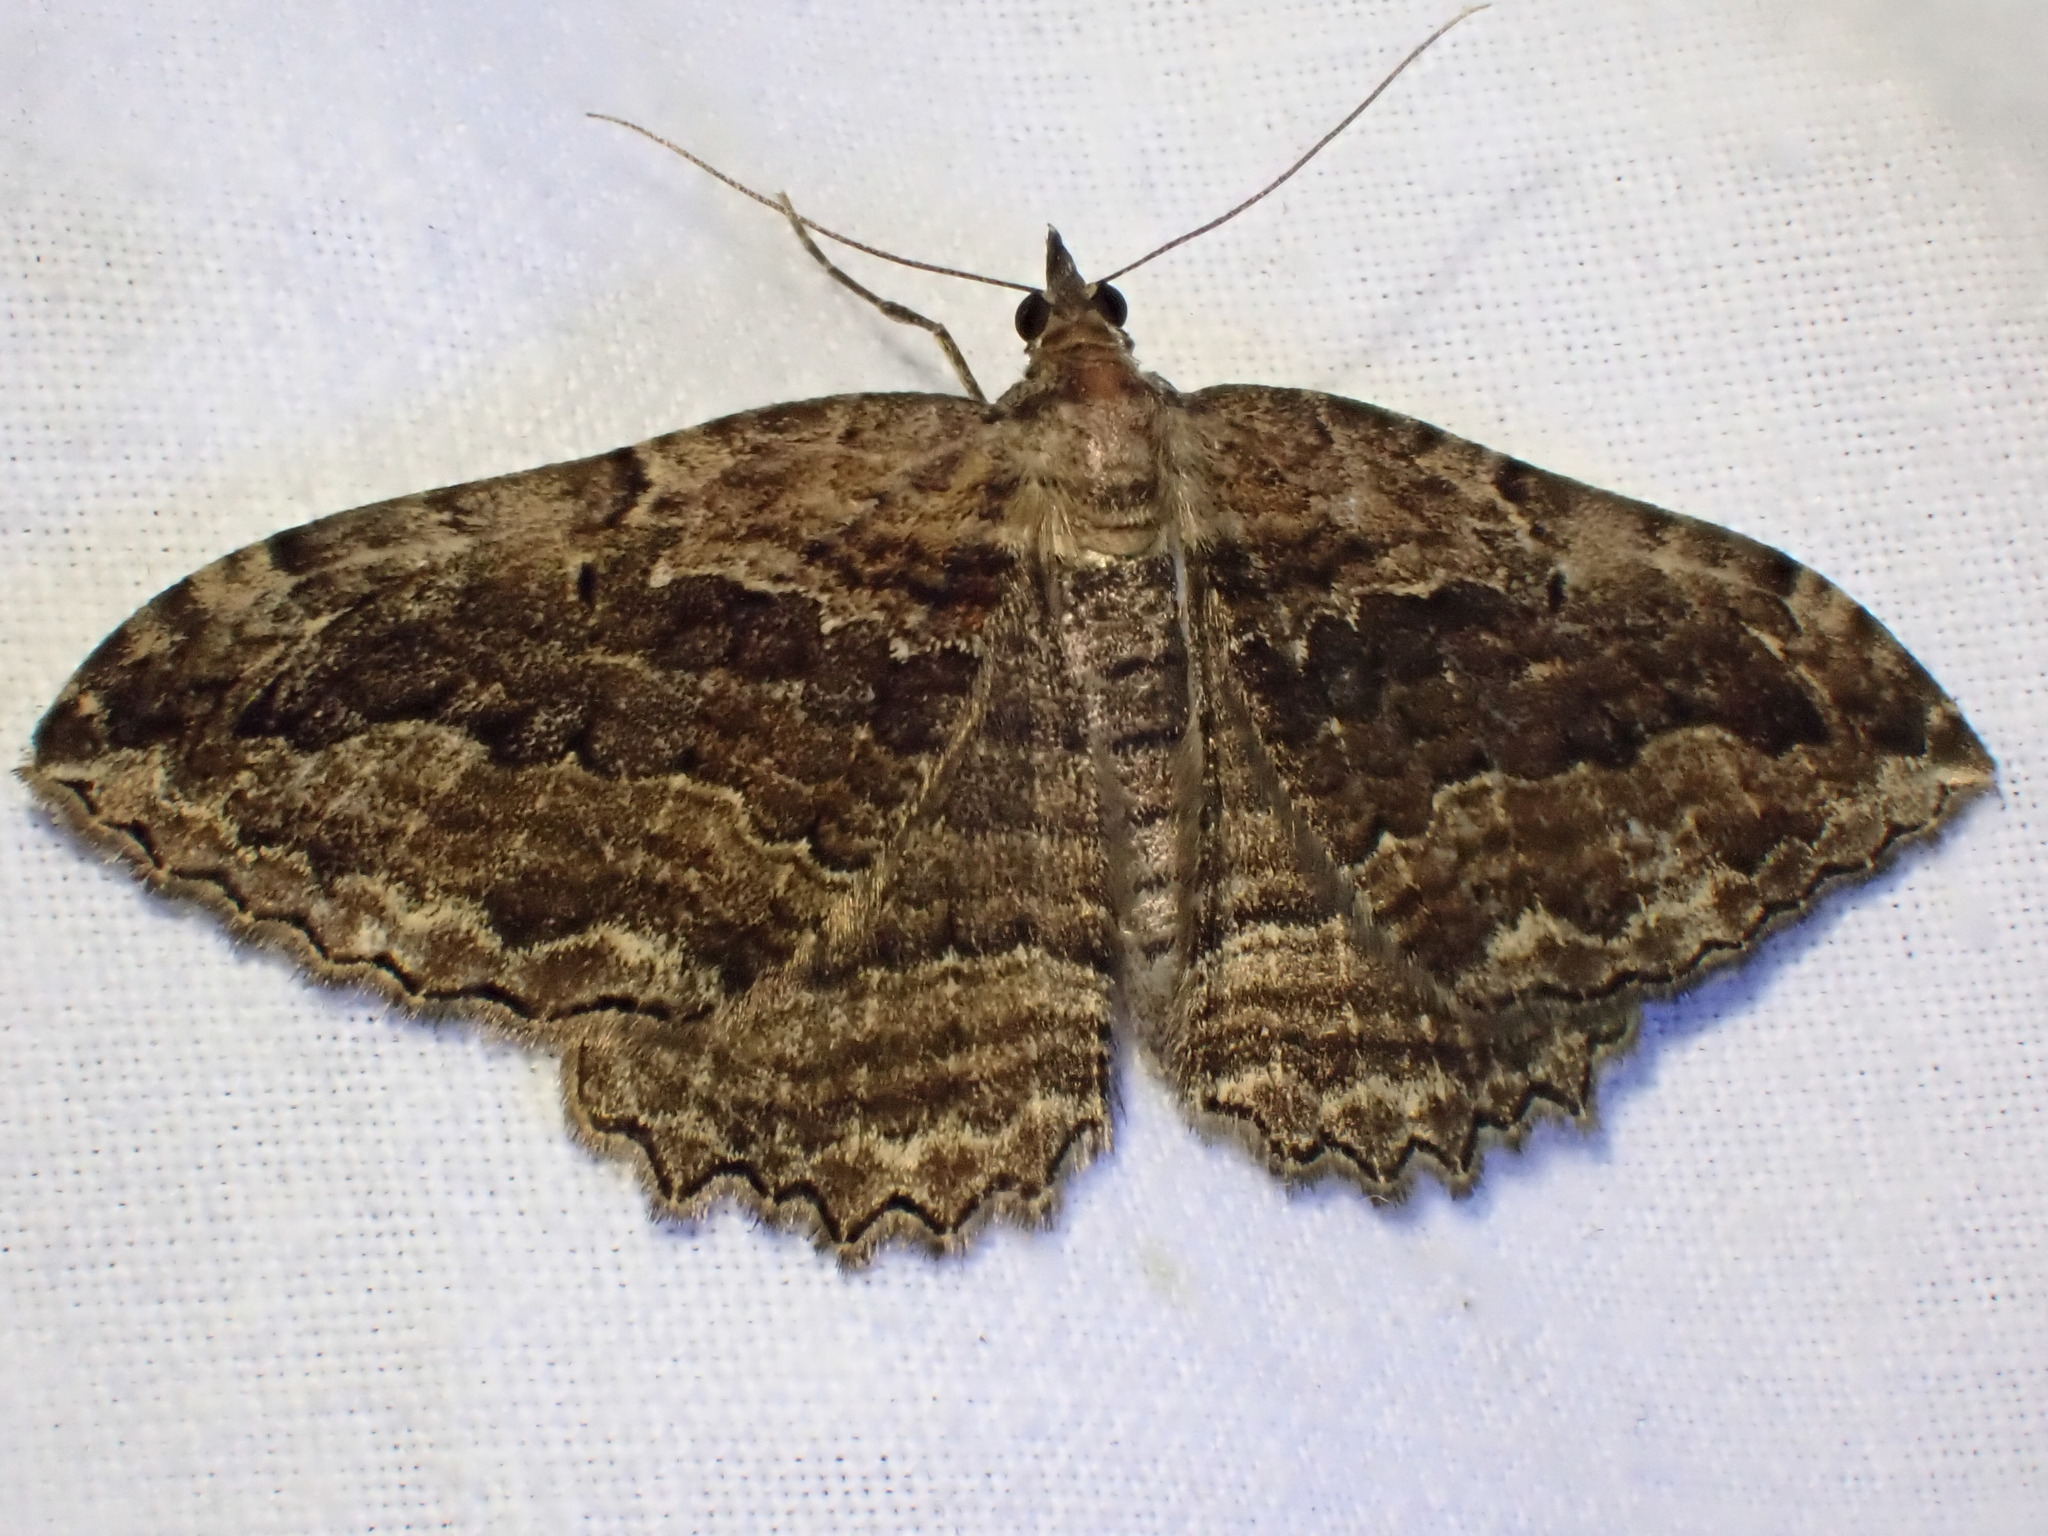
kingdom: Animalia
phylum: Arthropoda
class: Insecta
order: Lepidoptera
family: Geometridae
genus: Philereme
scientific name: Philereme transversata
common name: Dark umber
